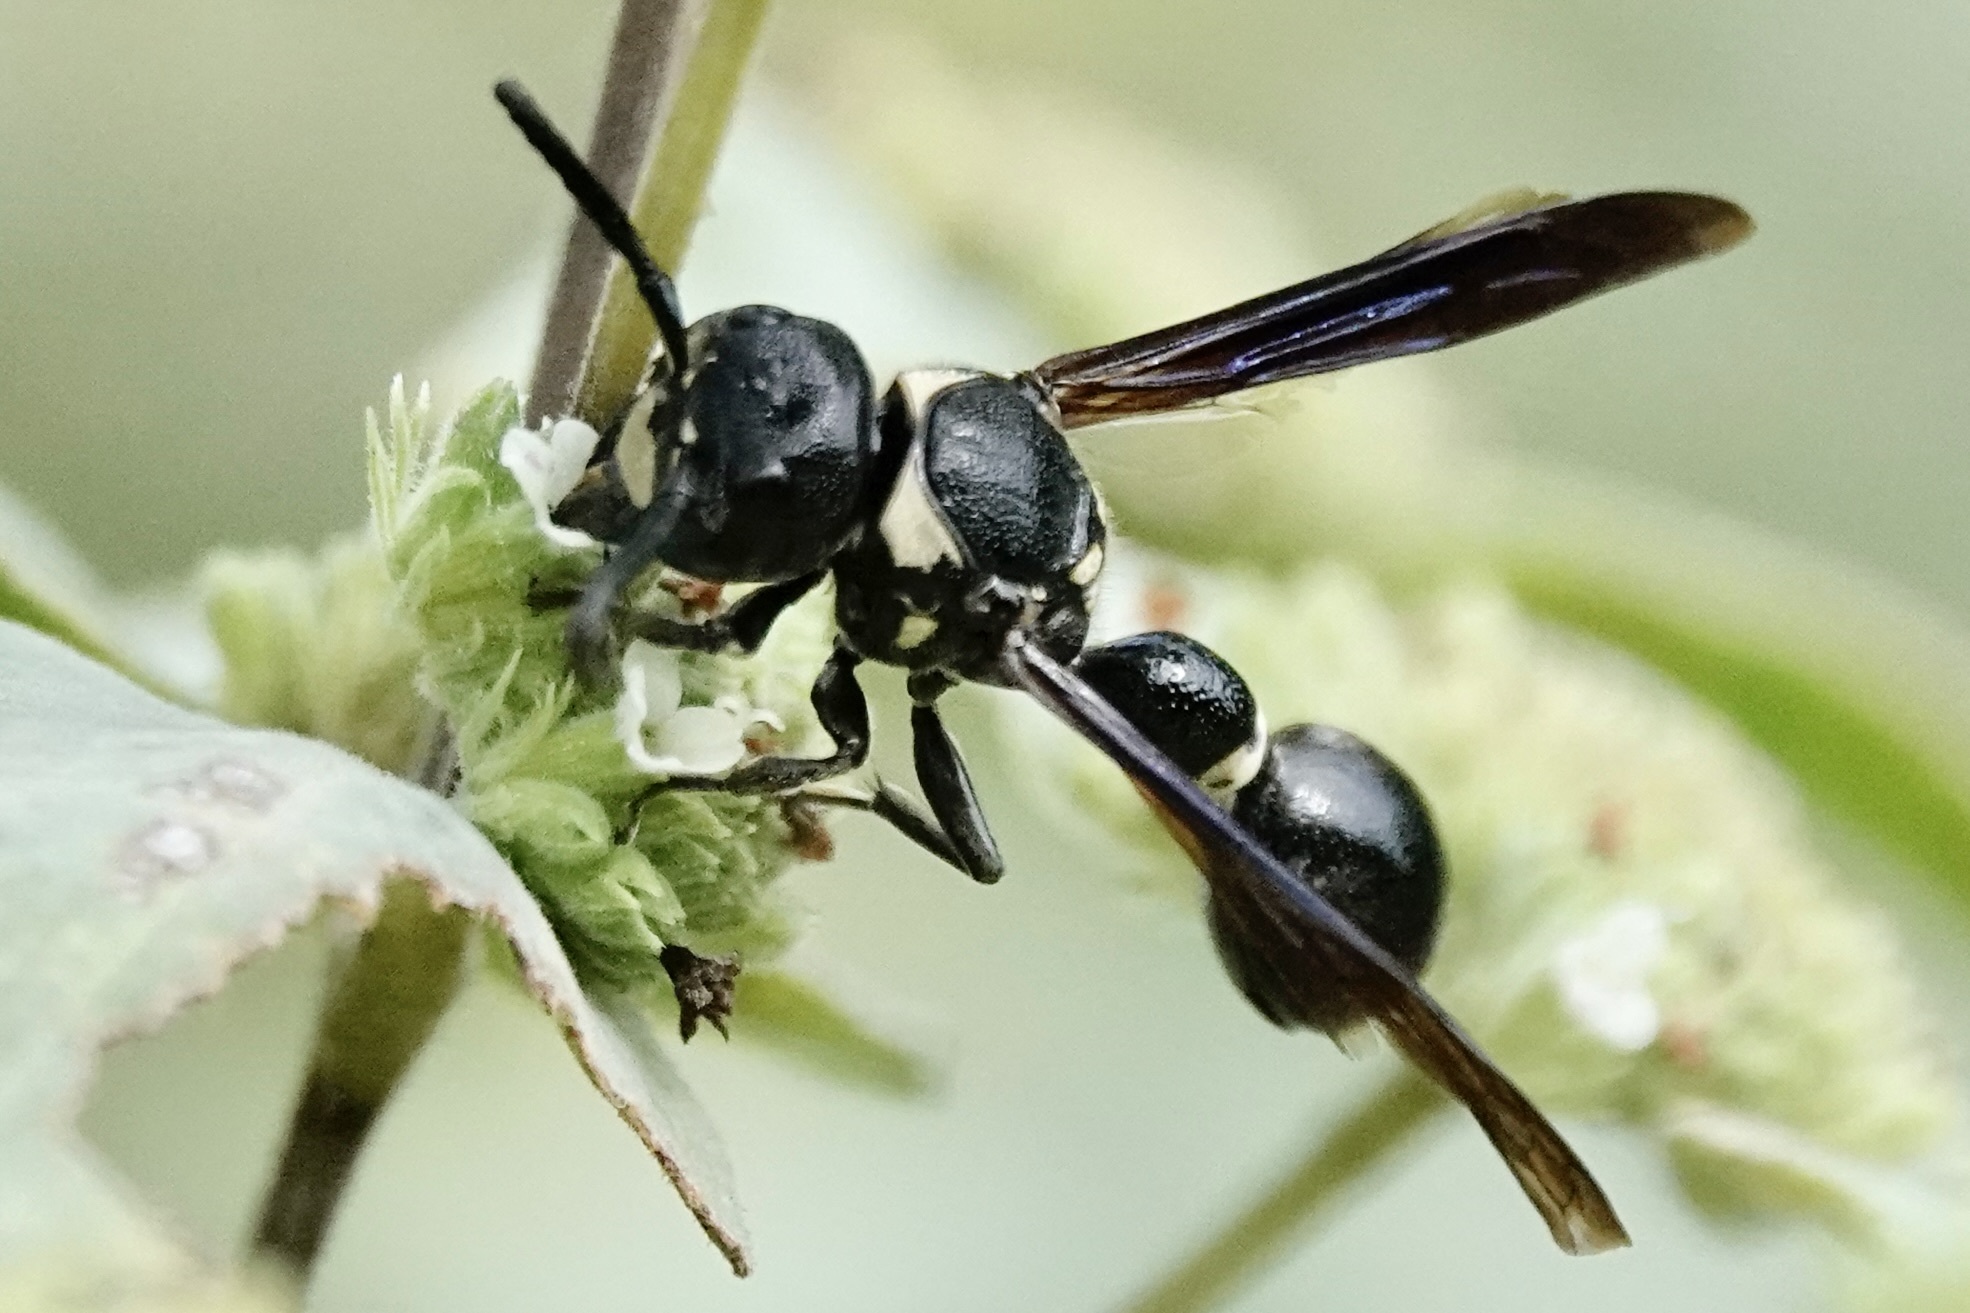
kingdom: Animalia
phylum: Arthropoda
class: Insecta
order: Hymenoptera
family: Eumenidae
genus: Zethus
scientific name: Zethus spinipes
